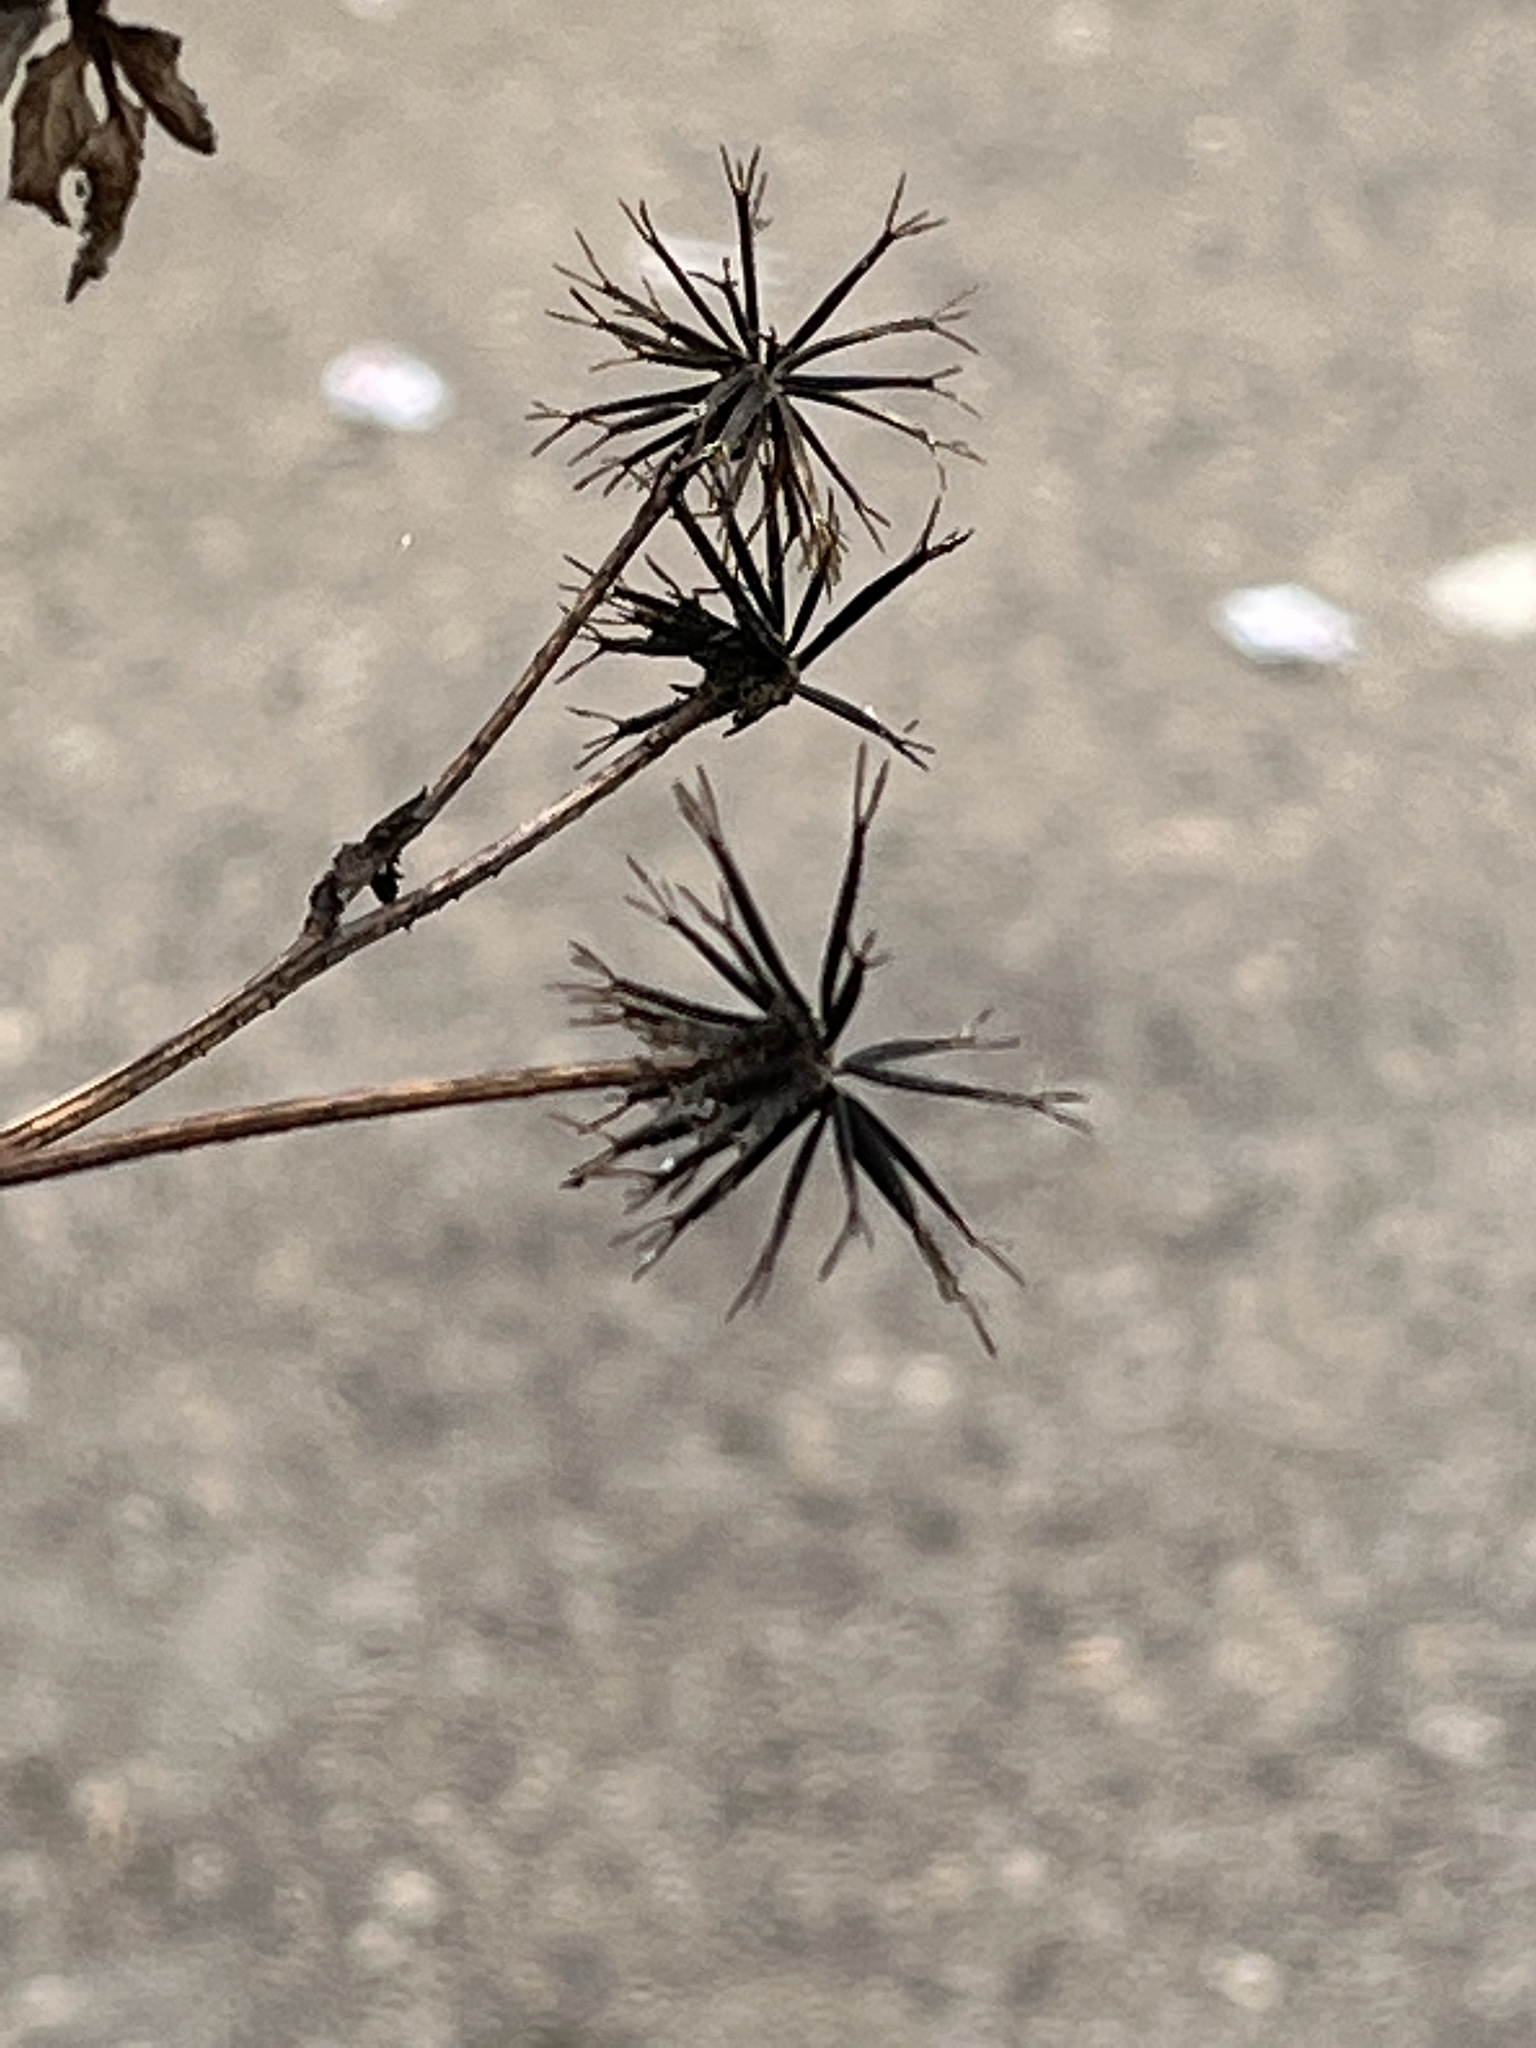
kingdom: Plantae
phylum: Tracheophyta
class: Magnoliopsida
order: Asterales
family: Asteraceae
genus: Bidens
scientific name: Bidens pilosa
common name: Black-jack
